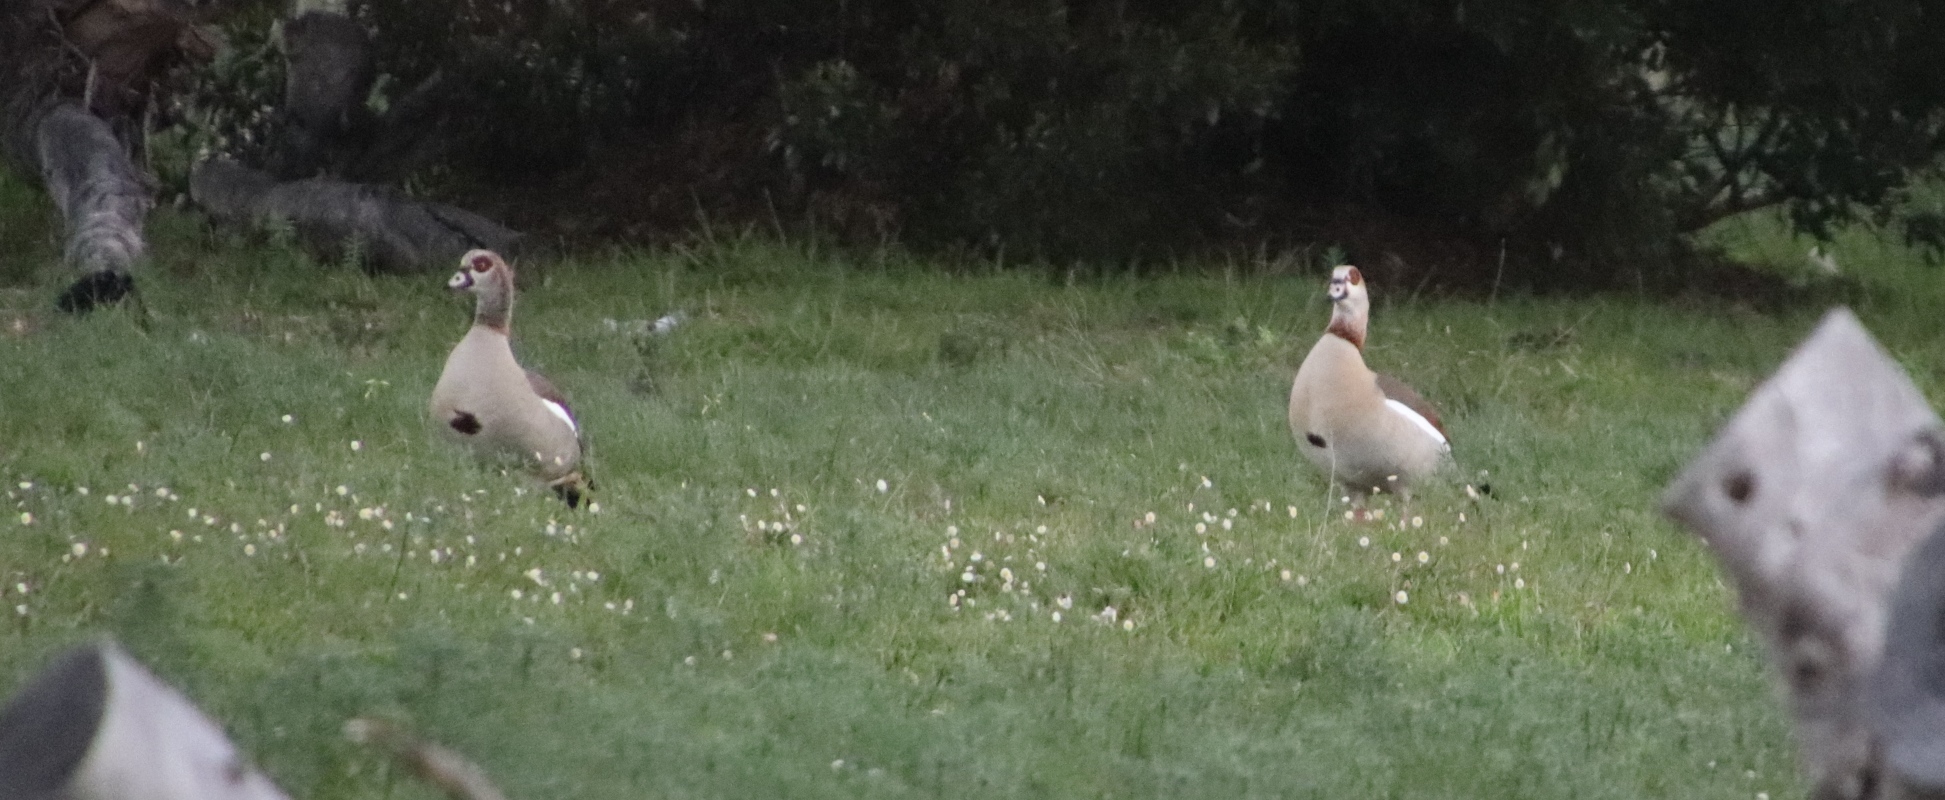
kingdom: Animalia
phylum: Chordata
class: Aves
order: Anseriformes
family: Anatidae
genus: Alopochen
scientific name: Alopochen aegyptiaca
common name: Egyptian goose
